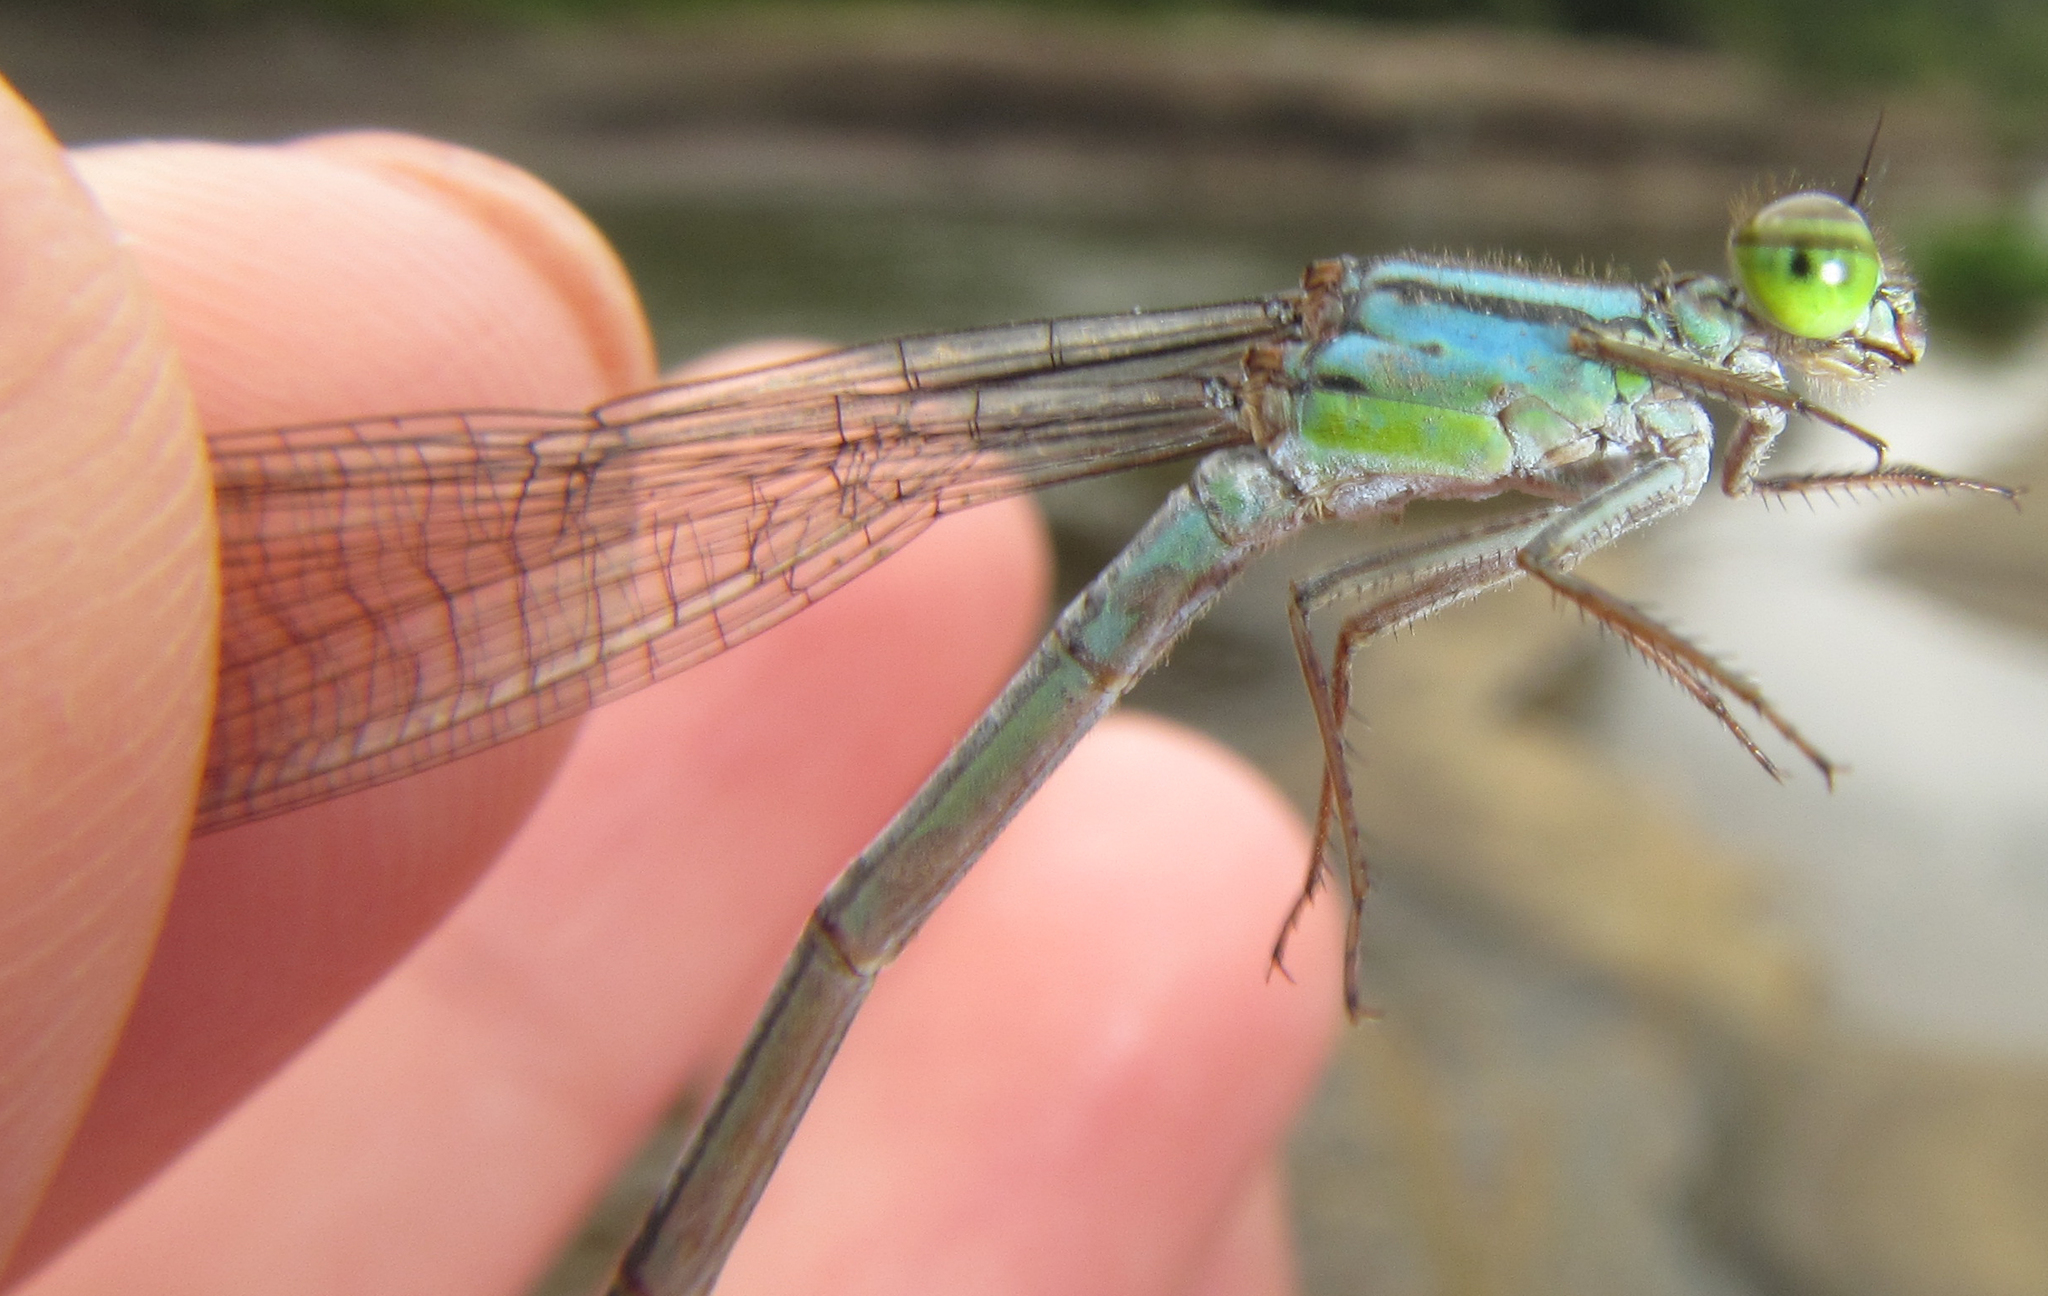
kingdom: Animalia
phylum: Arthropoda
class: Insecta
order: Odonata
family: Coenagrionidae
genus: Pseudagrion
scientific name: Pseudagrion spernatum
